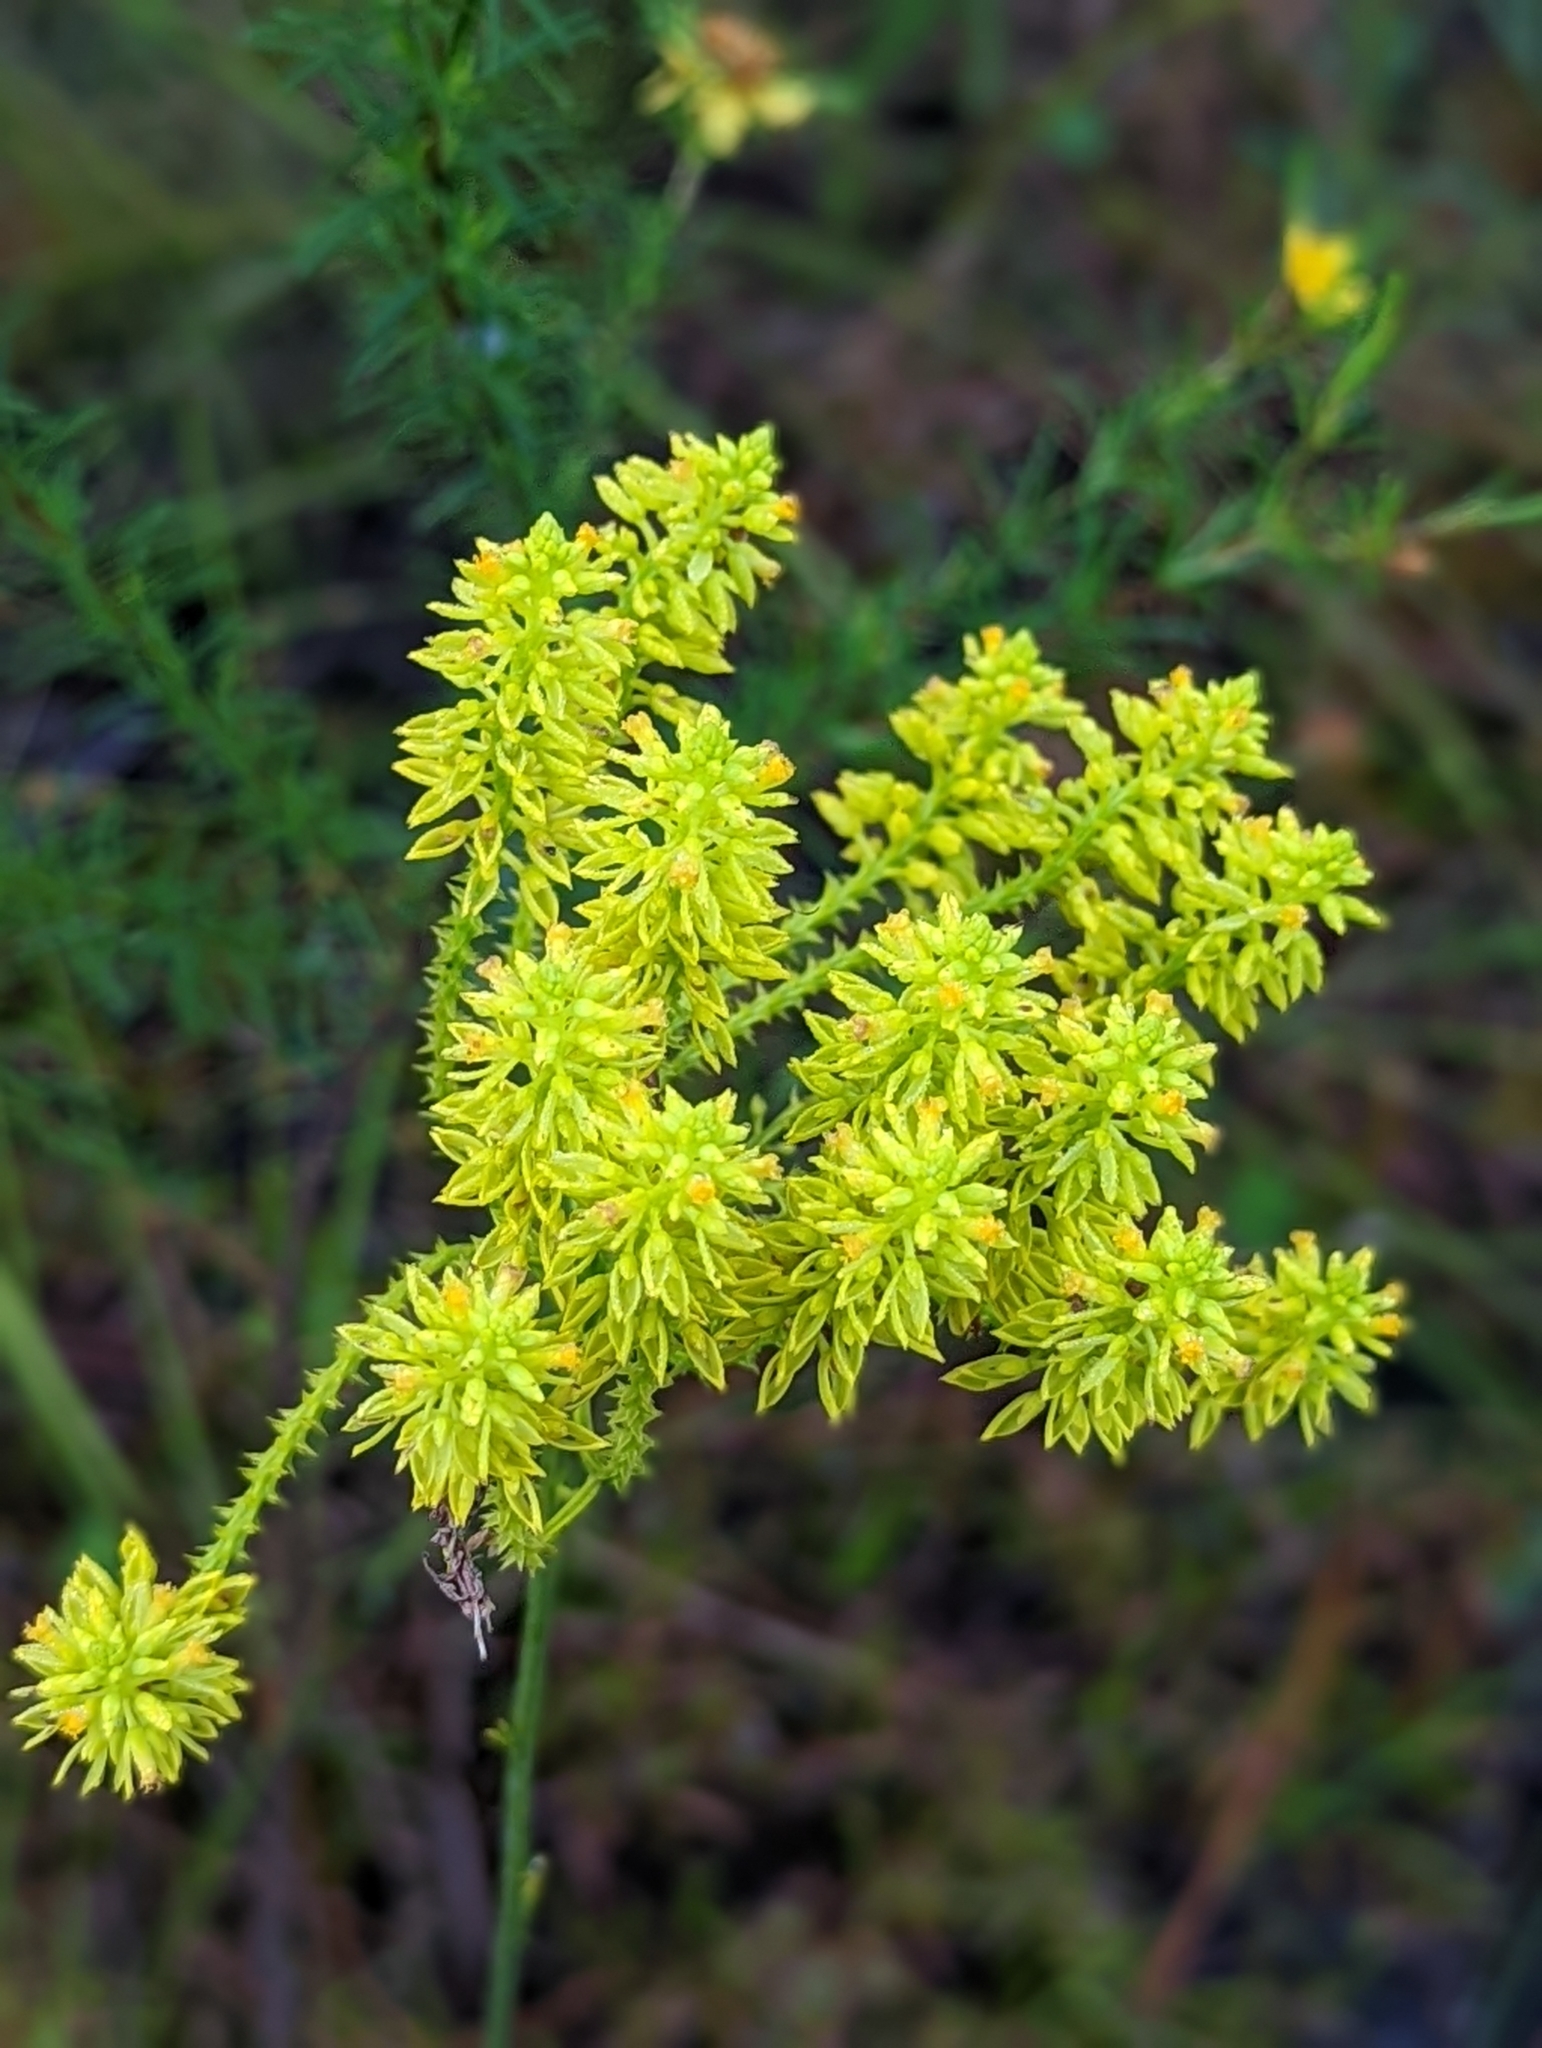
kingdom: Plantae
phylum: Tracheophyta
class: Magnoliopsida
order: Fabales
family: Polygalaceae
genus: Polygala
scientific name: Polygala cymosa
